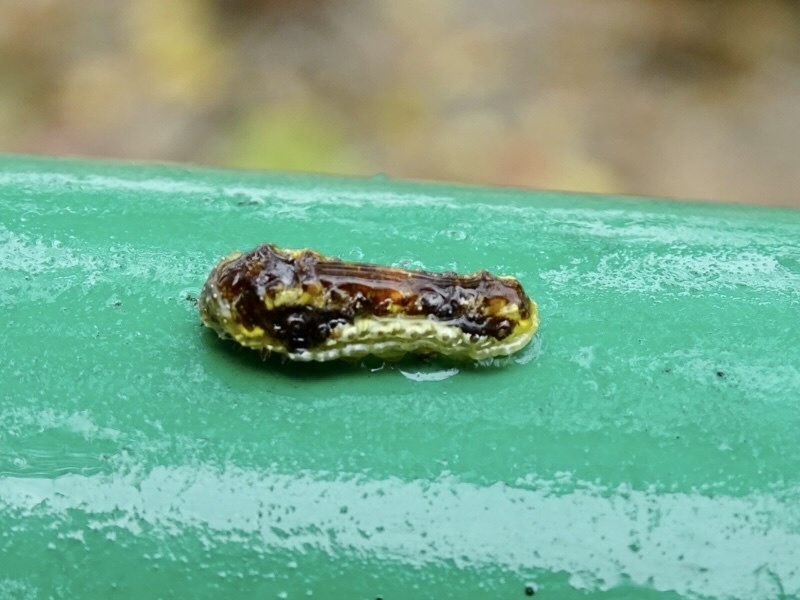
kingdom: Animalia
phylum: Arthropoda
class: Insecta
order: Lepidoptera
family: Phaudidae
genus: Phauda
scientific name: Phauda flammans
